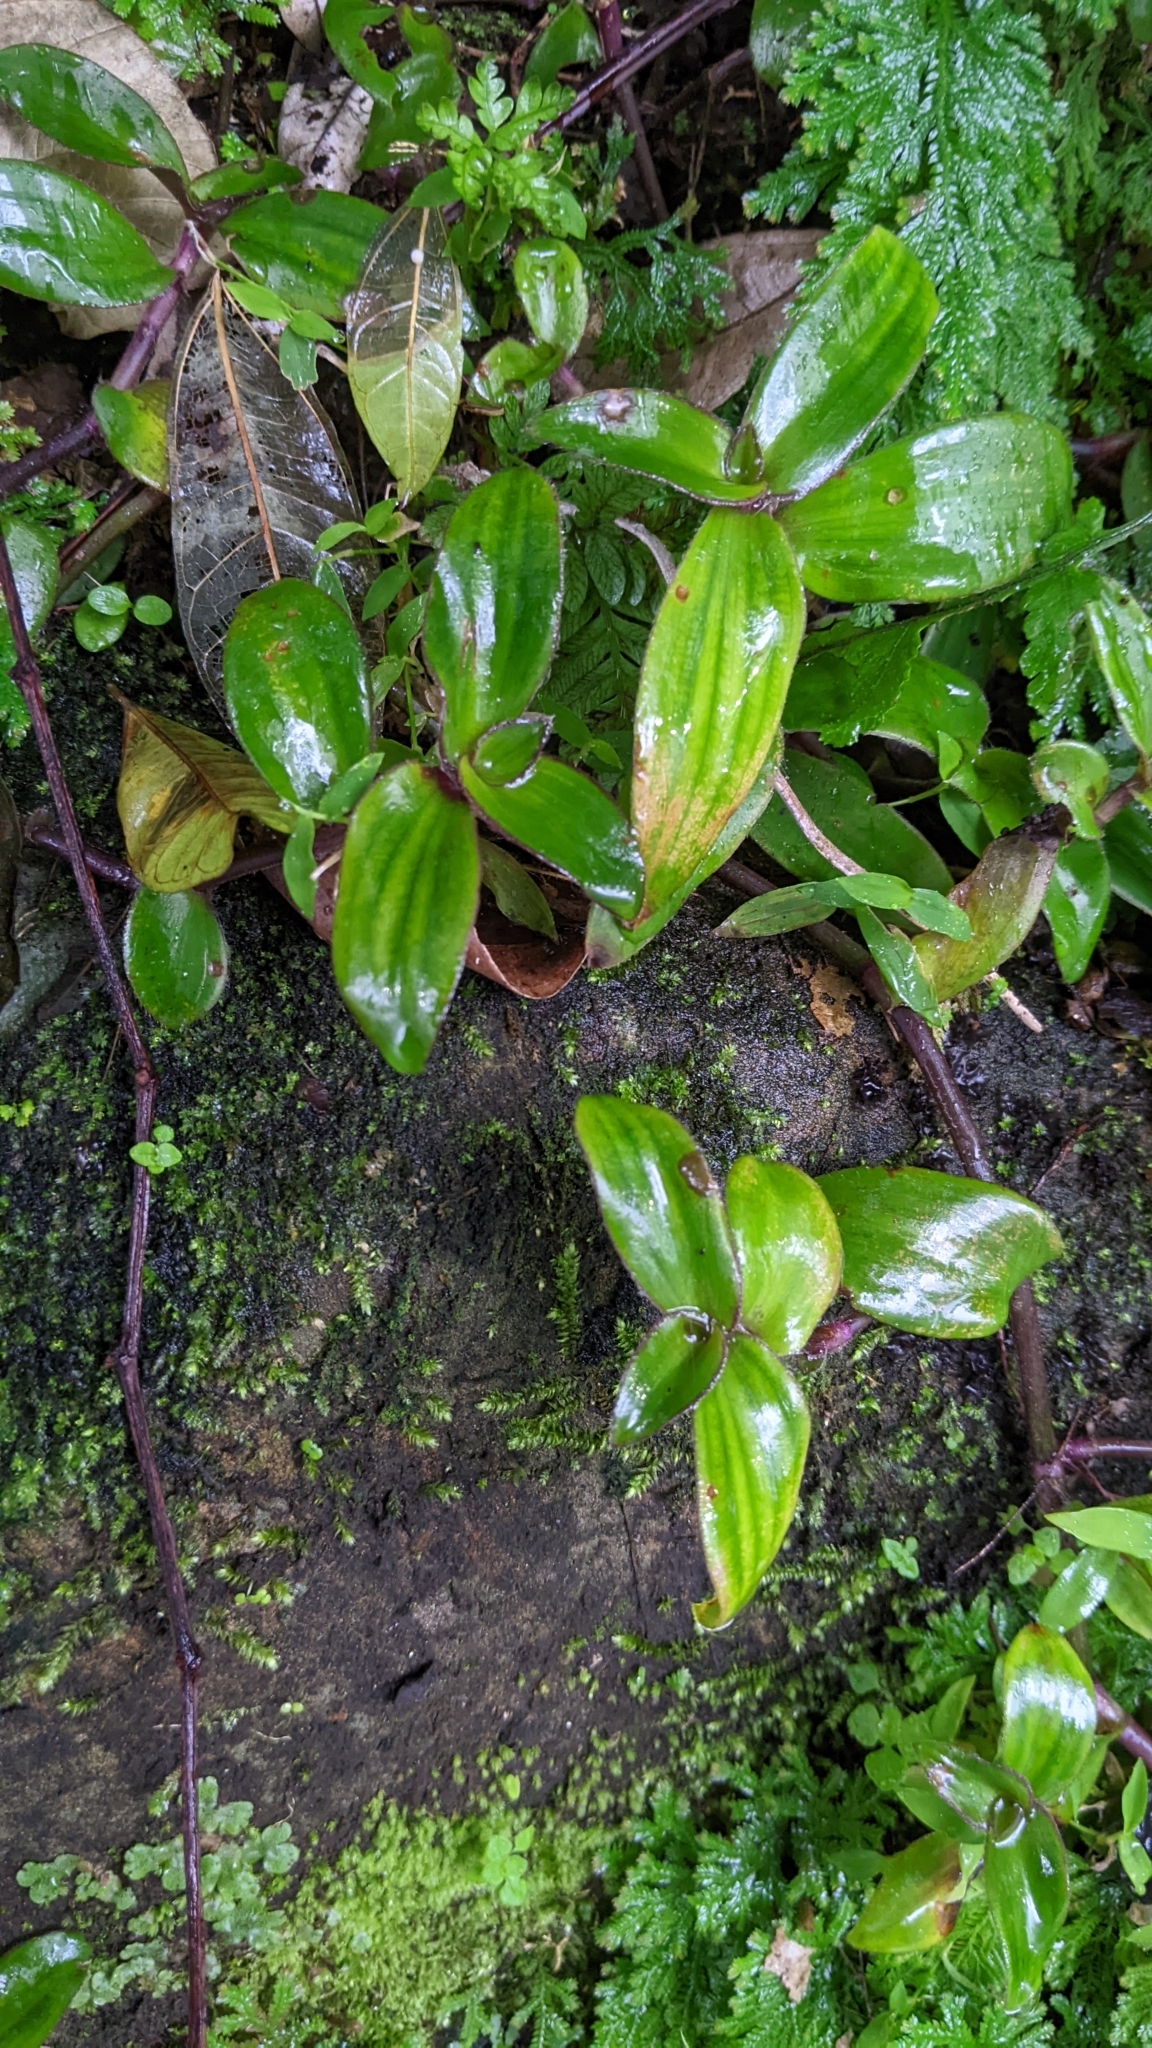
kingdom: Plantae
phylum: Tracheophyta
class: Liliopsida
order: Commelinales
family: Commelinaceae
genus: Cyanotis
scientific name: Cyanotis ciliata
